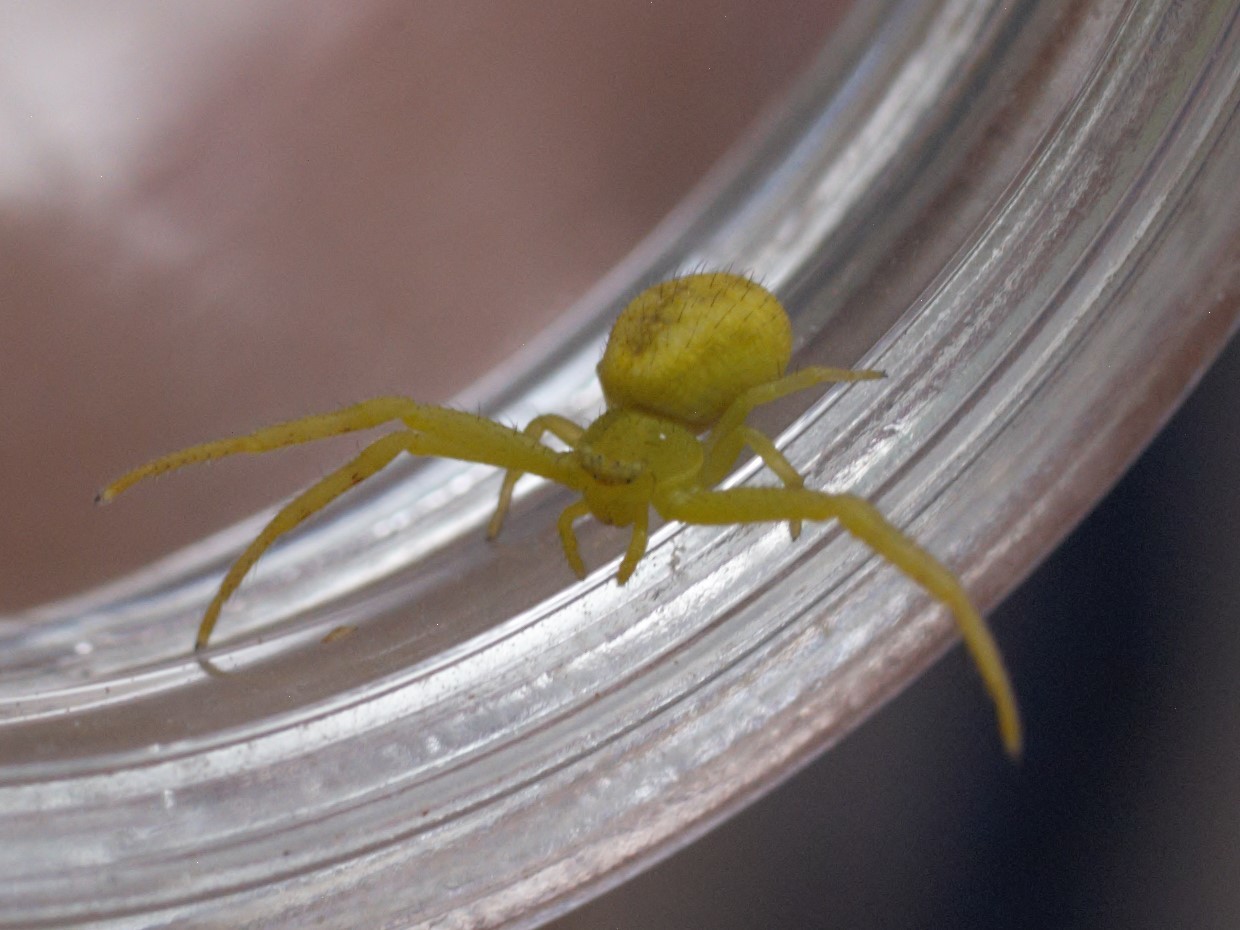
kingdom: Animalia
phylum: Arthropoda
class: Arachnida
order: Araneae
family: Thomisidae
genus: Mecaphesa
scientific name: Mecaphesa
